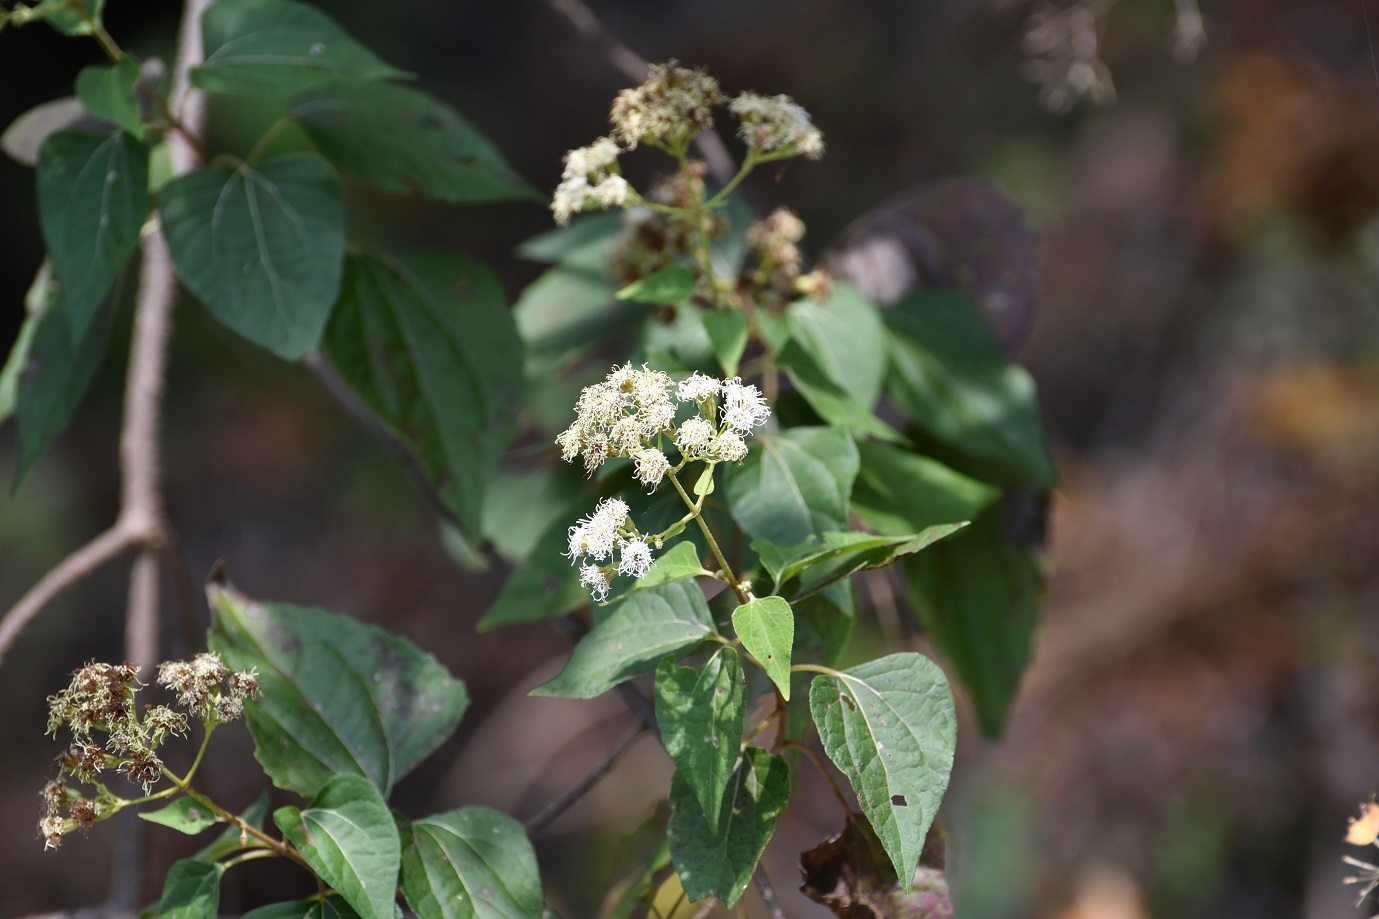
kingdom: Plantae
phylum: Tracheophyta
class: Magnoliopsida
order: Asterales
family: Asteraceae
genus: Chromolaena
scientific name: Chromolaena collina
